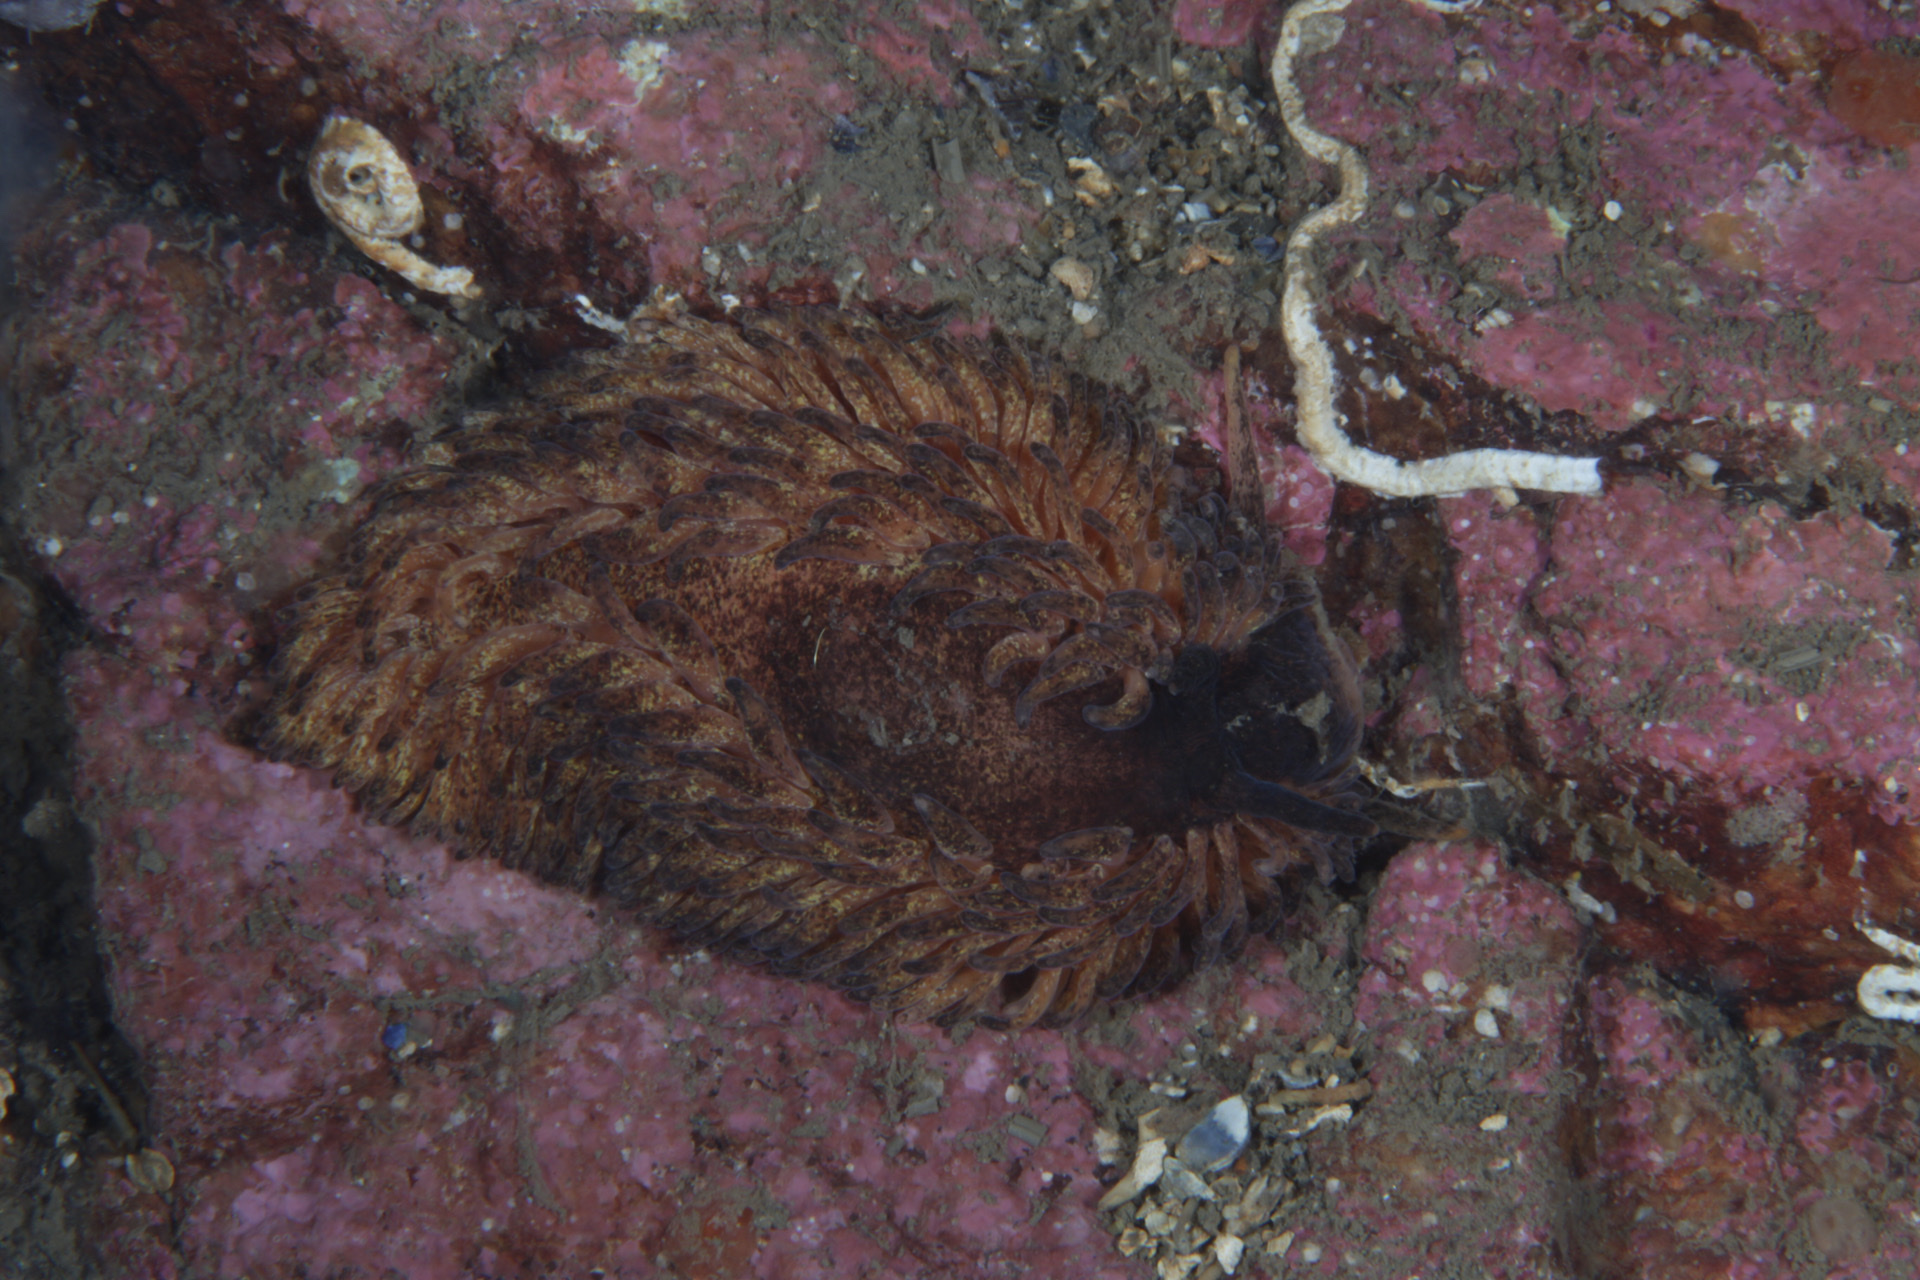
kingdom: Animalia
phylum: Mollusca
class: Gastropoda
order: Nudibranchia
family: Aeolidiidae
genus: Aeolidia
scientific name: Aeolidia papillosa
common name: Common grey sea slug
